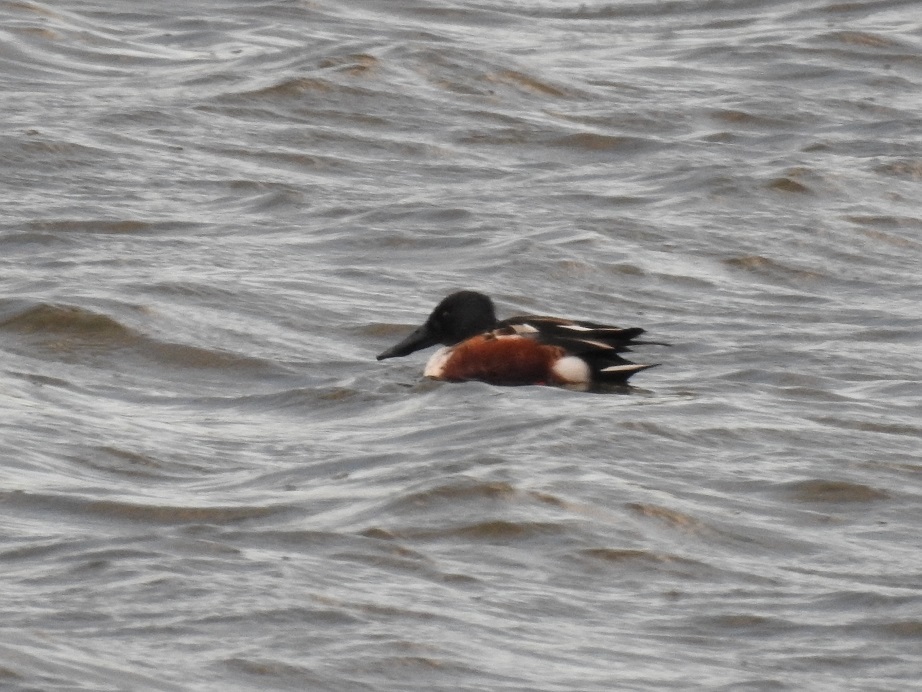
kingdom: Animalia
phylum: Chordata
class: Aves
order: Anseriformes
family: Anatidae
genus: Spatula
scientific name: Spatula clypeata
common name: Northern shoveler
